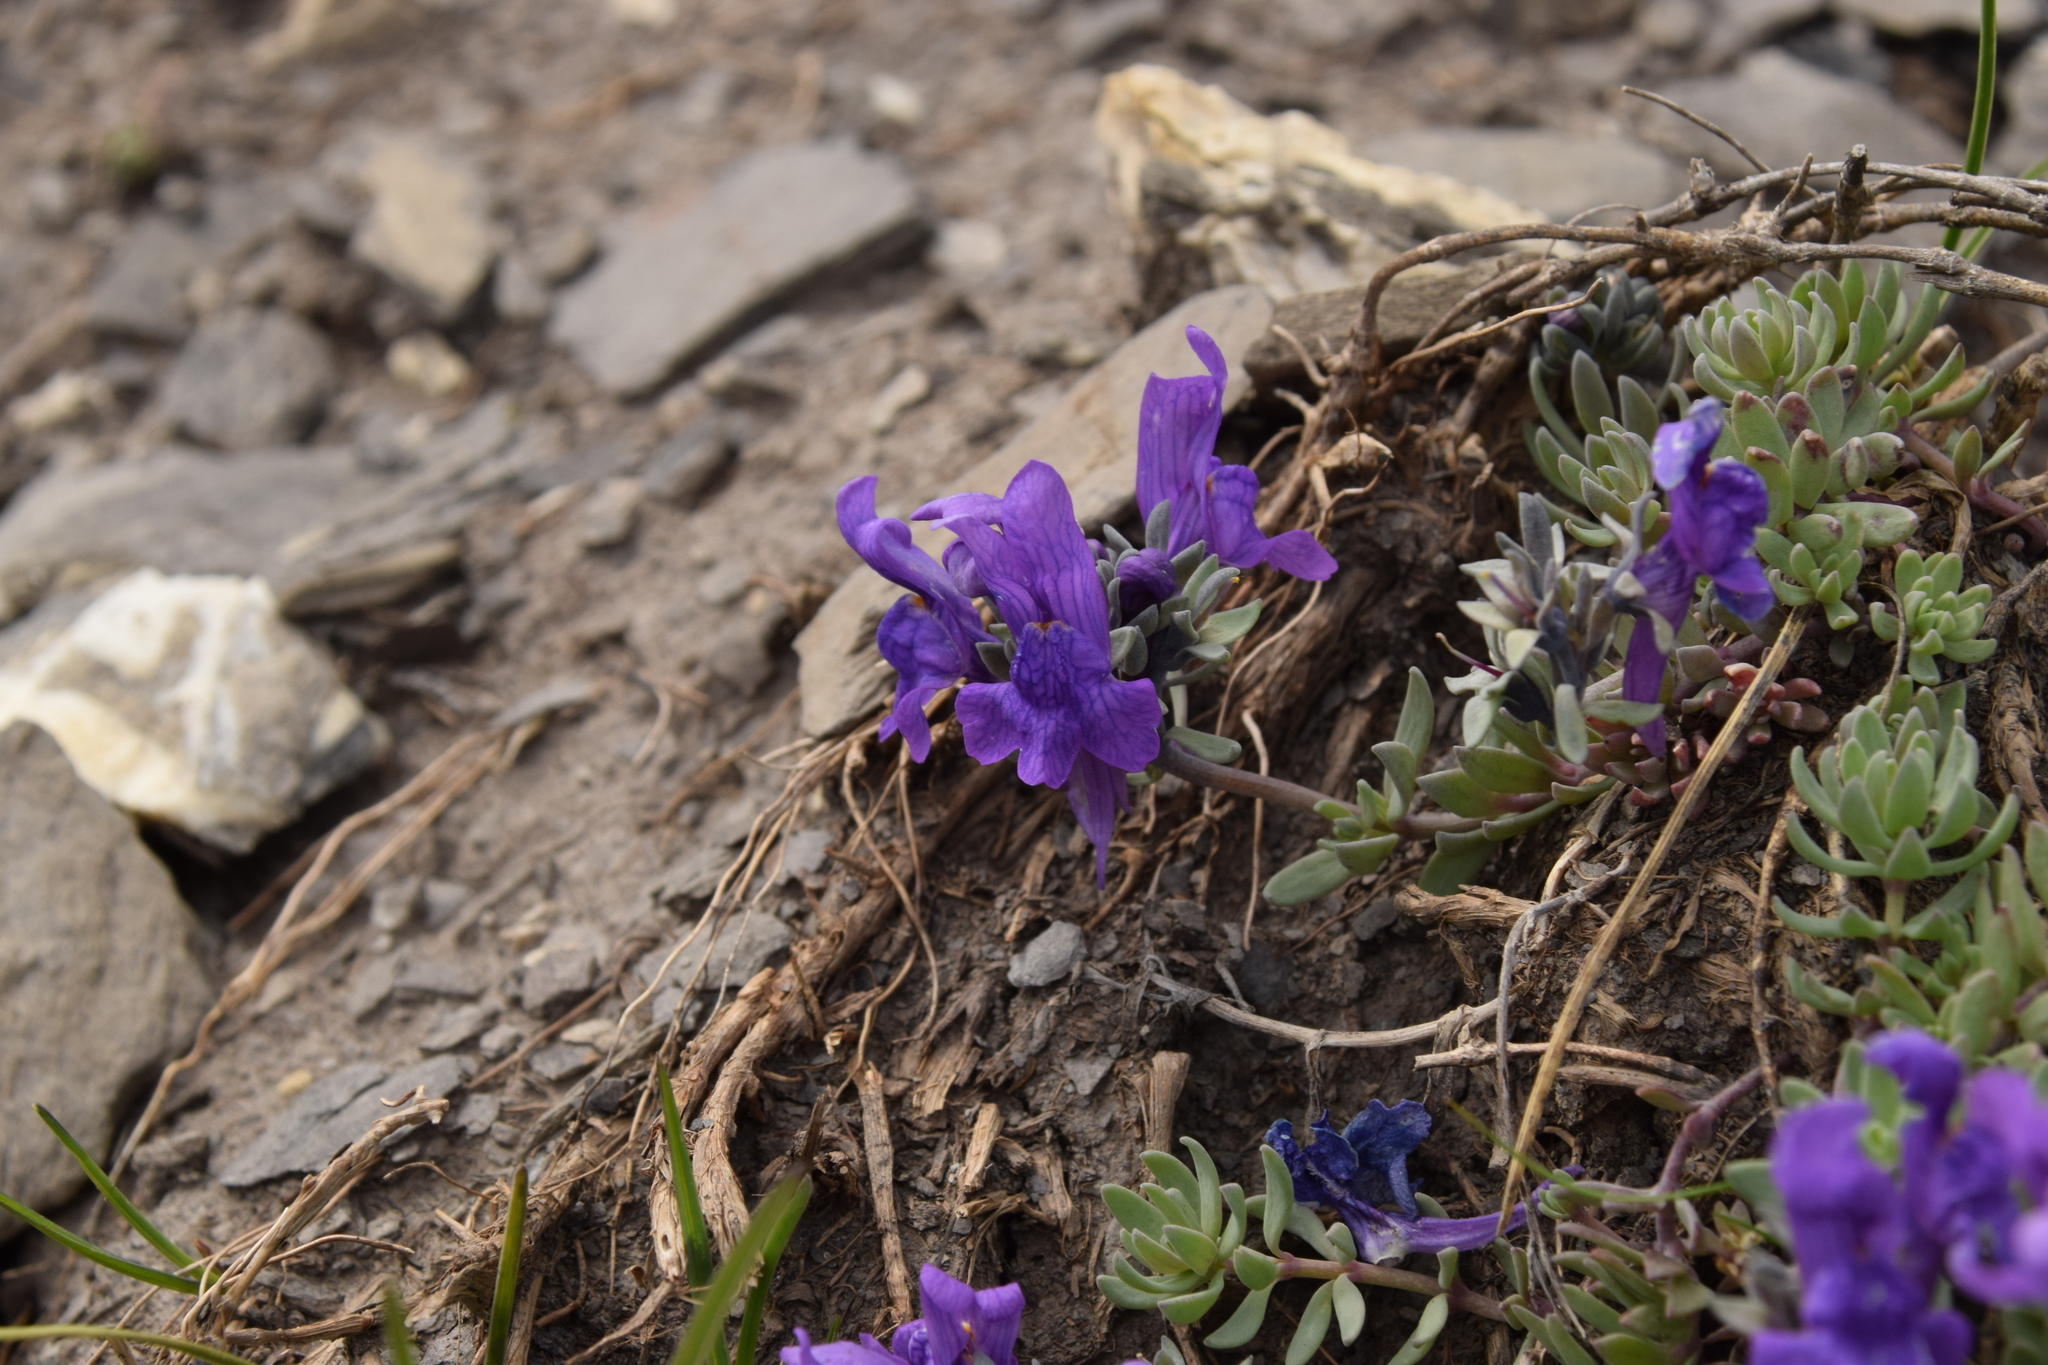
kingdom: Plantae
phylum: Tracheophyta
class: Magnoliopsida
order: Lamiales
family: Plantaginaceae
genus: Linaria
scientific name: Linaria alpina
